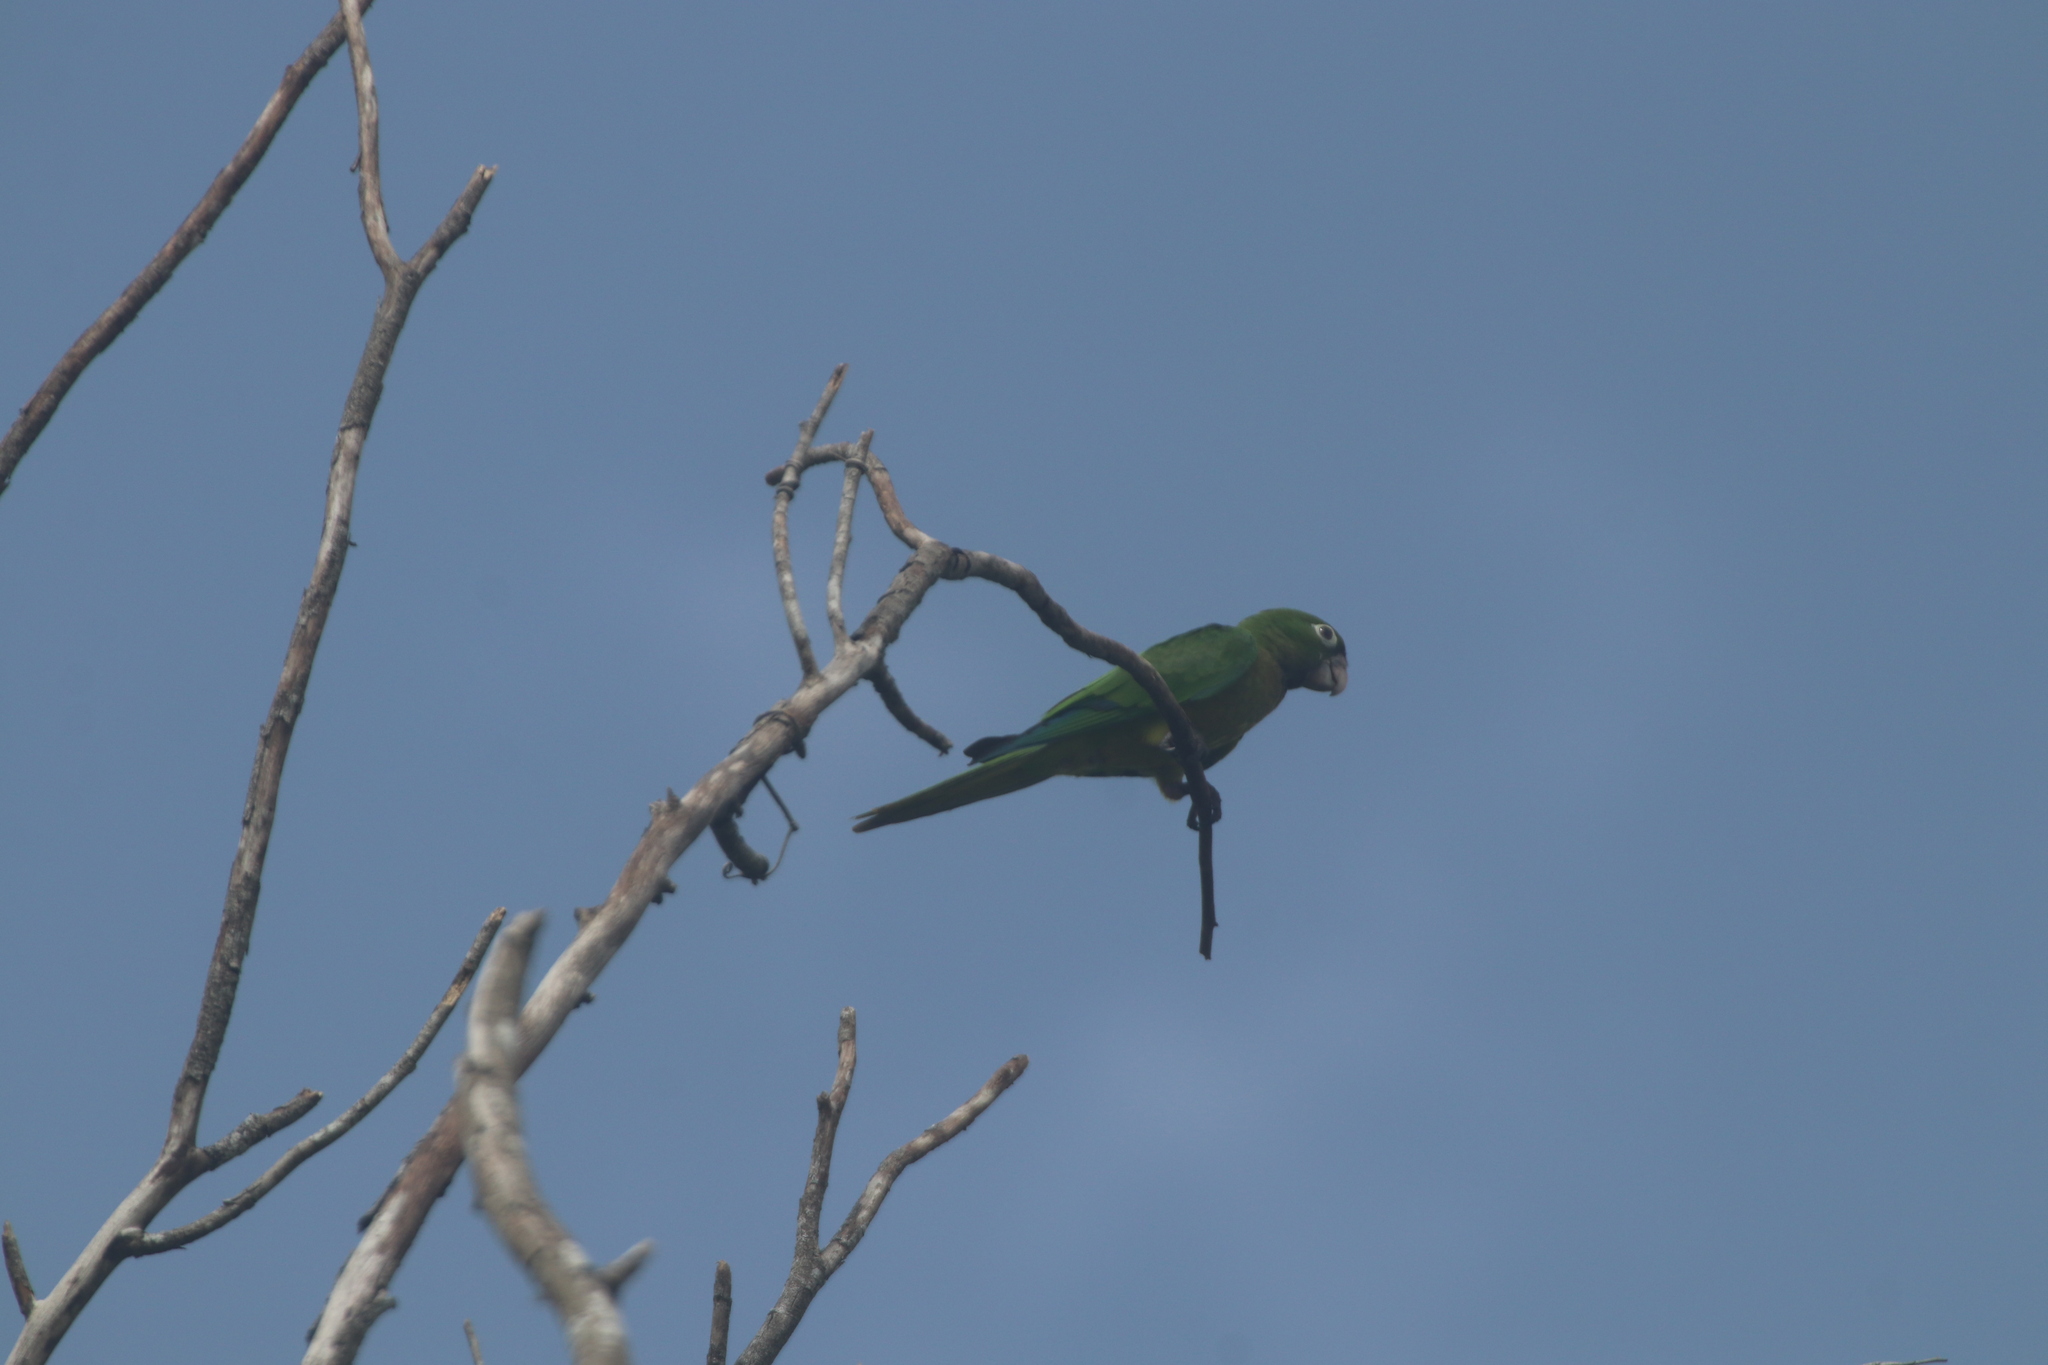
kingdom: Animalia
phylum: Chordata
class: Aves
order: Psittaciformes
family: Psittacidae
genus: Aratinga
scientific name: Aratinga nana
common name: Olive-throated parakeet
